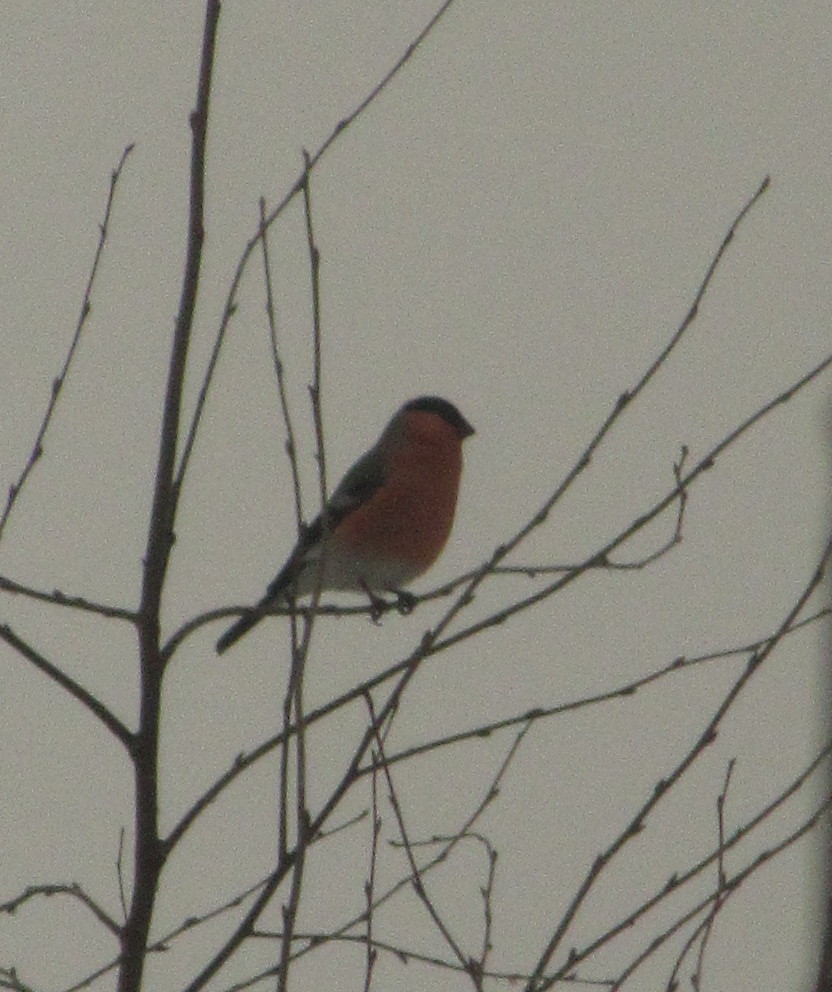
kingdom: Animalia
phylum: Chordata
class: Aves
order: Passeriformes
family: Fringillidae
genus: Pyrrhula
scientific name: Pyrrhula pyrrhula
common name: Eurasian bullfinch
